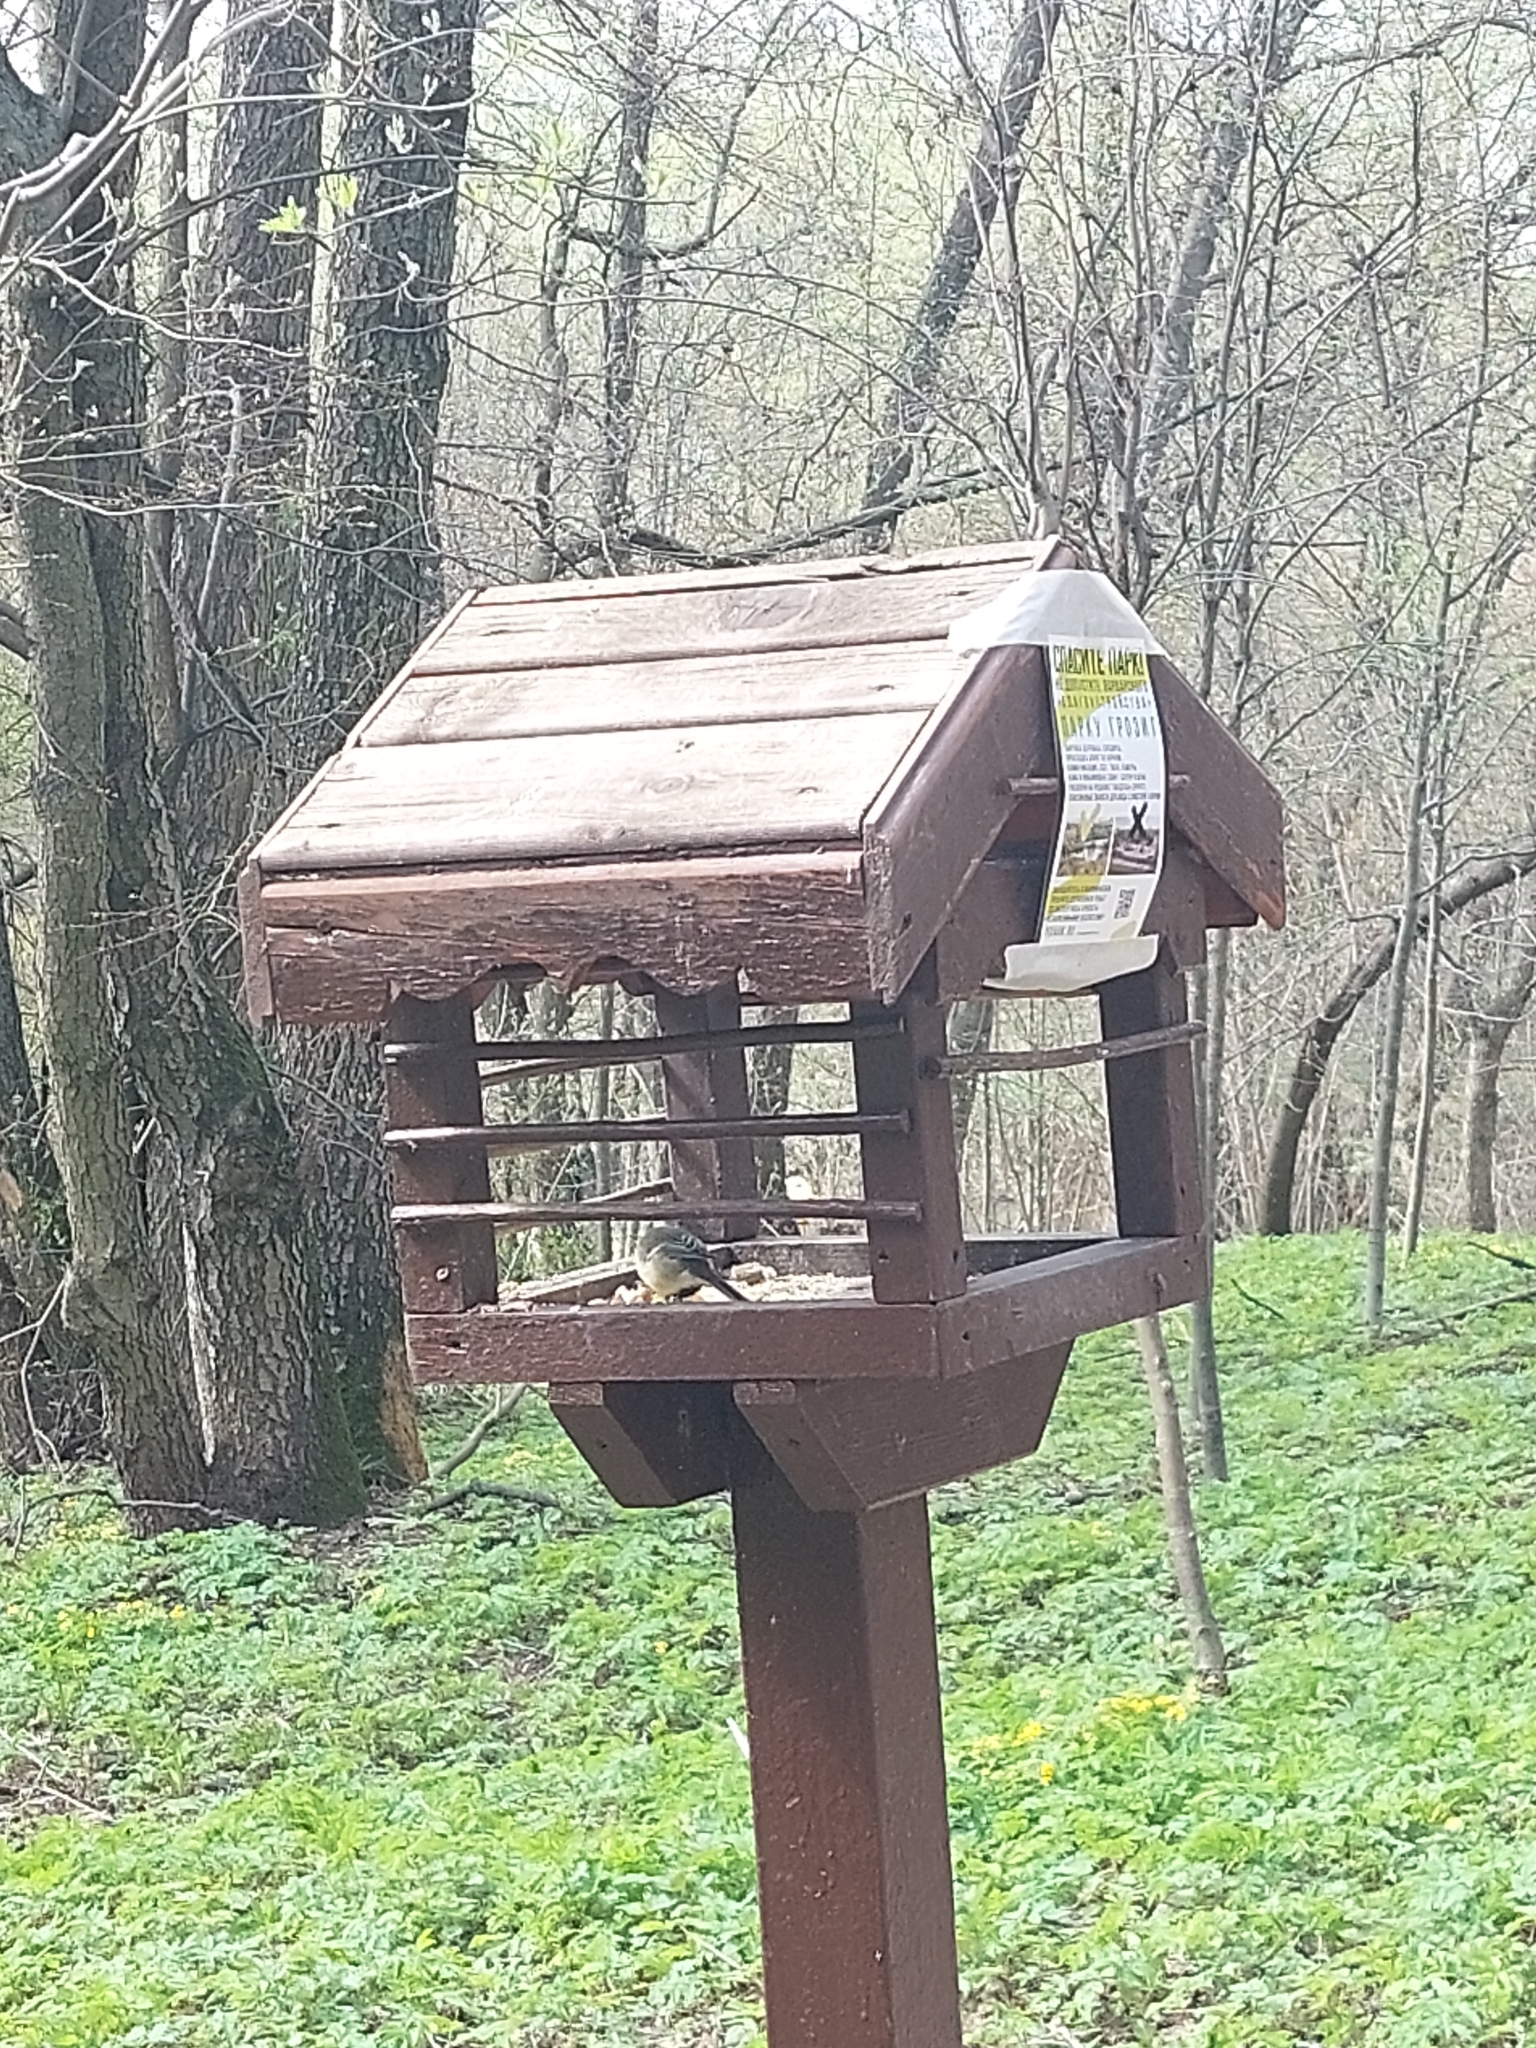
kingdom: Animalia
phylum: Chordata
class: Aves
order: Passeriformes
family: Paridae
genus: Parus
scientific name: Parus major
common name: Great tit
